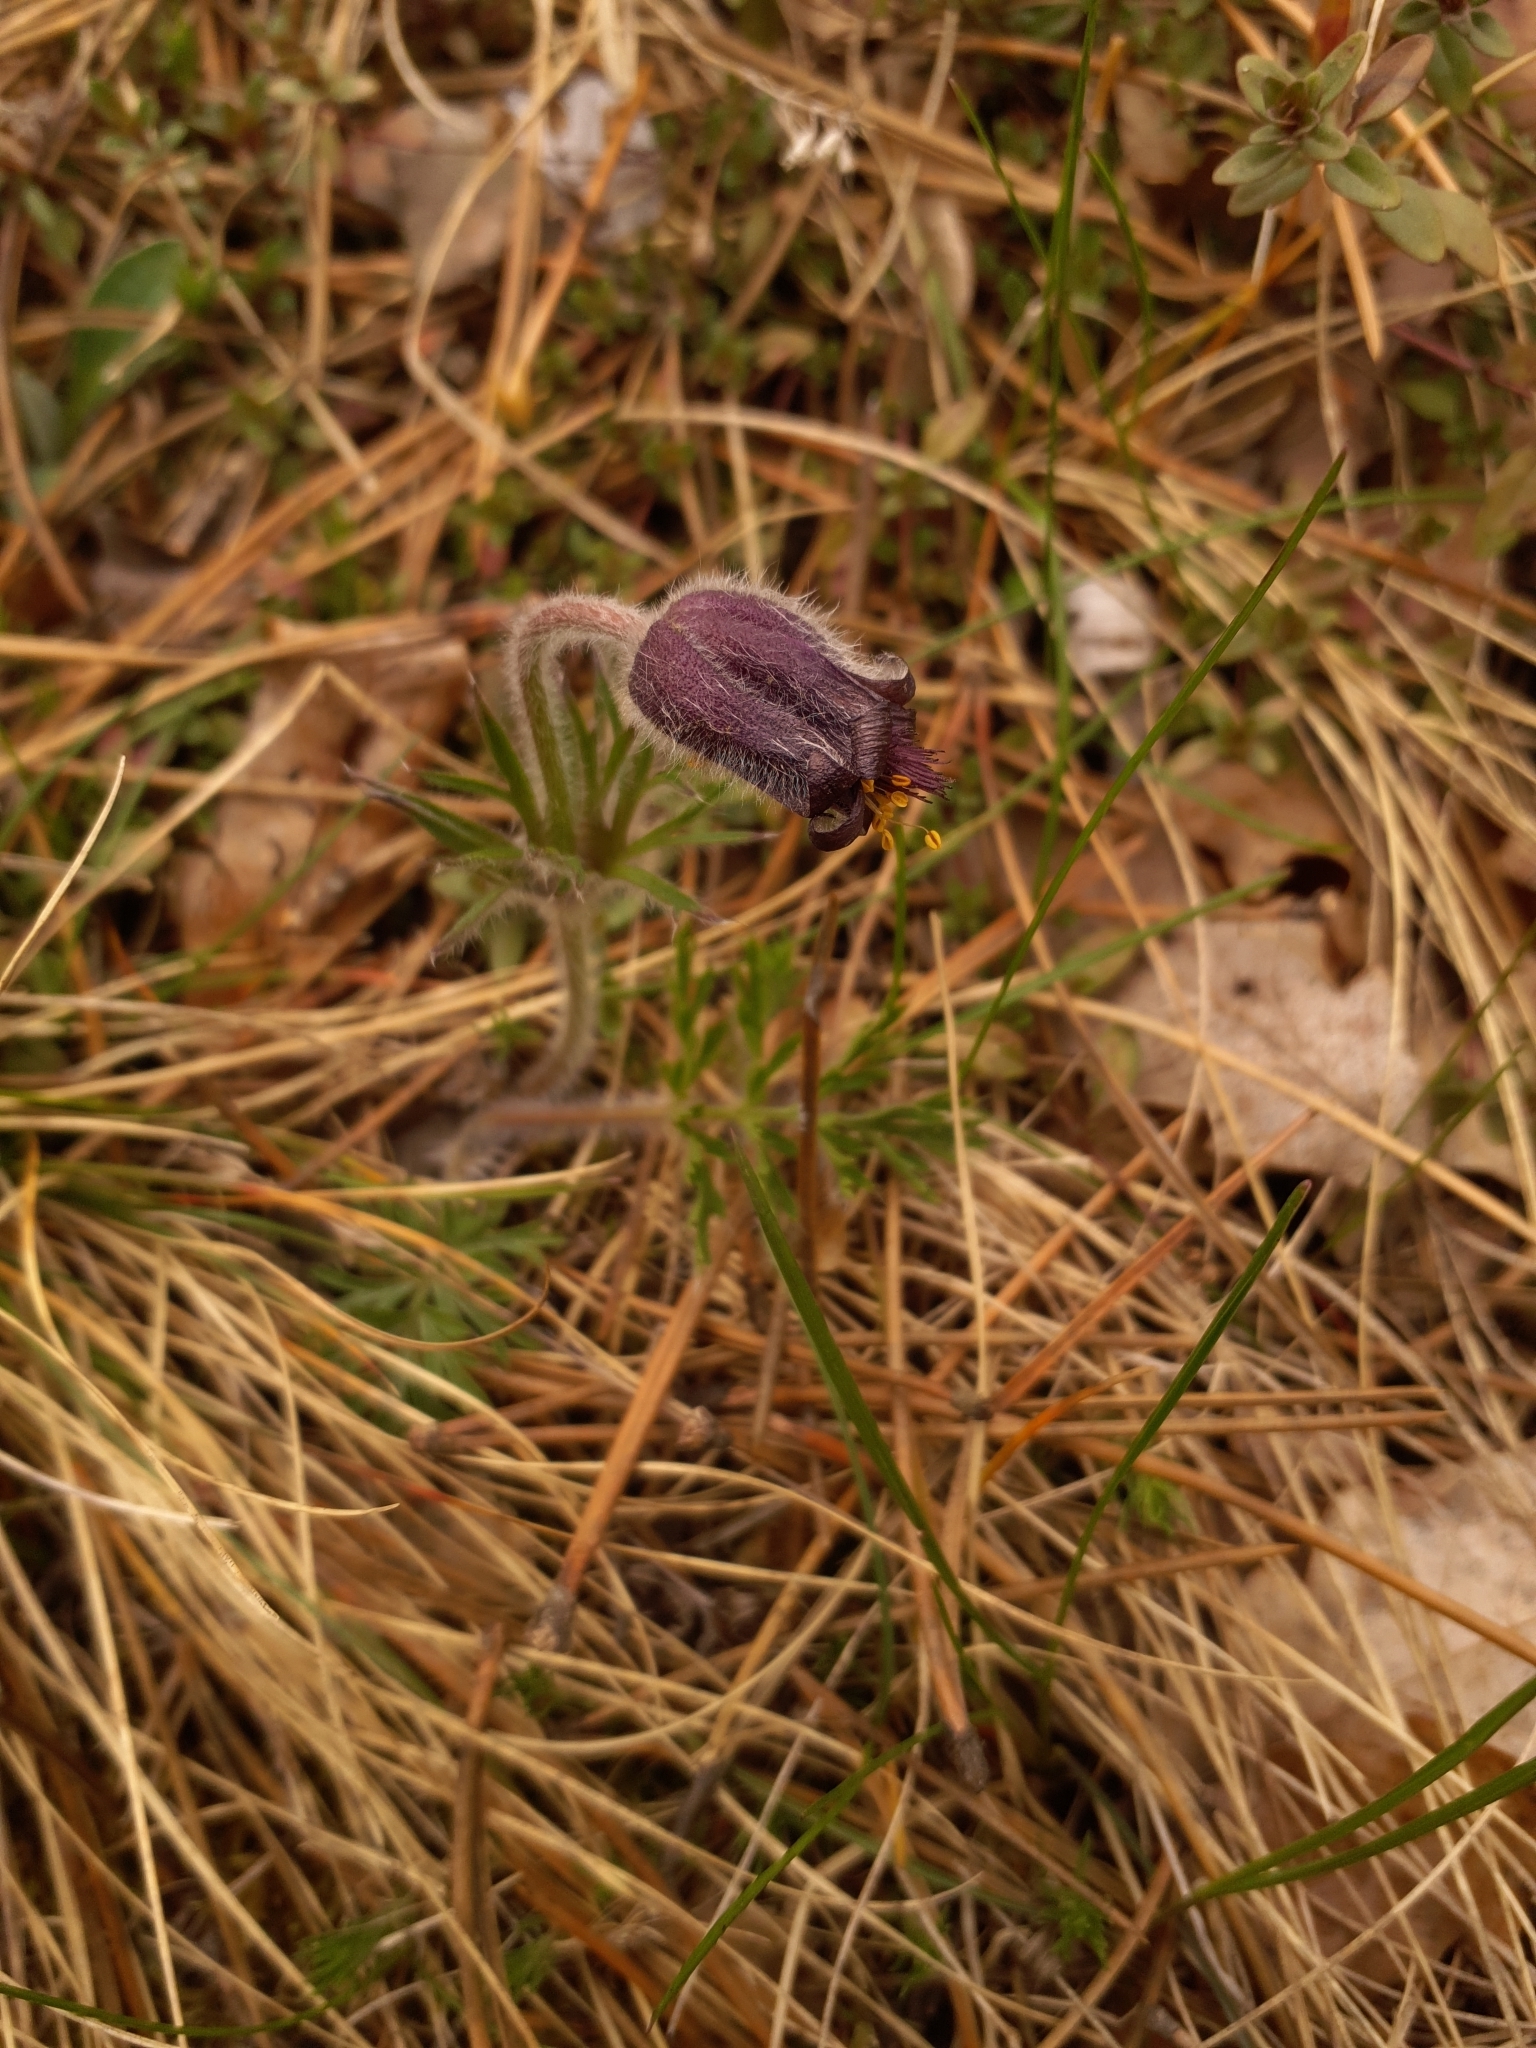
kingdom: Plantae
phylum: Tracheophyta
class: Magnoliopsida
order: Ranunculales
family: Ranunculaceae
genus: Pulsatilla
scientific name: Pulsatilla pratensis
